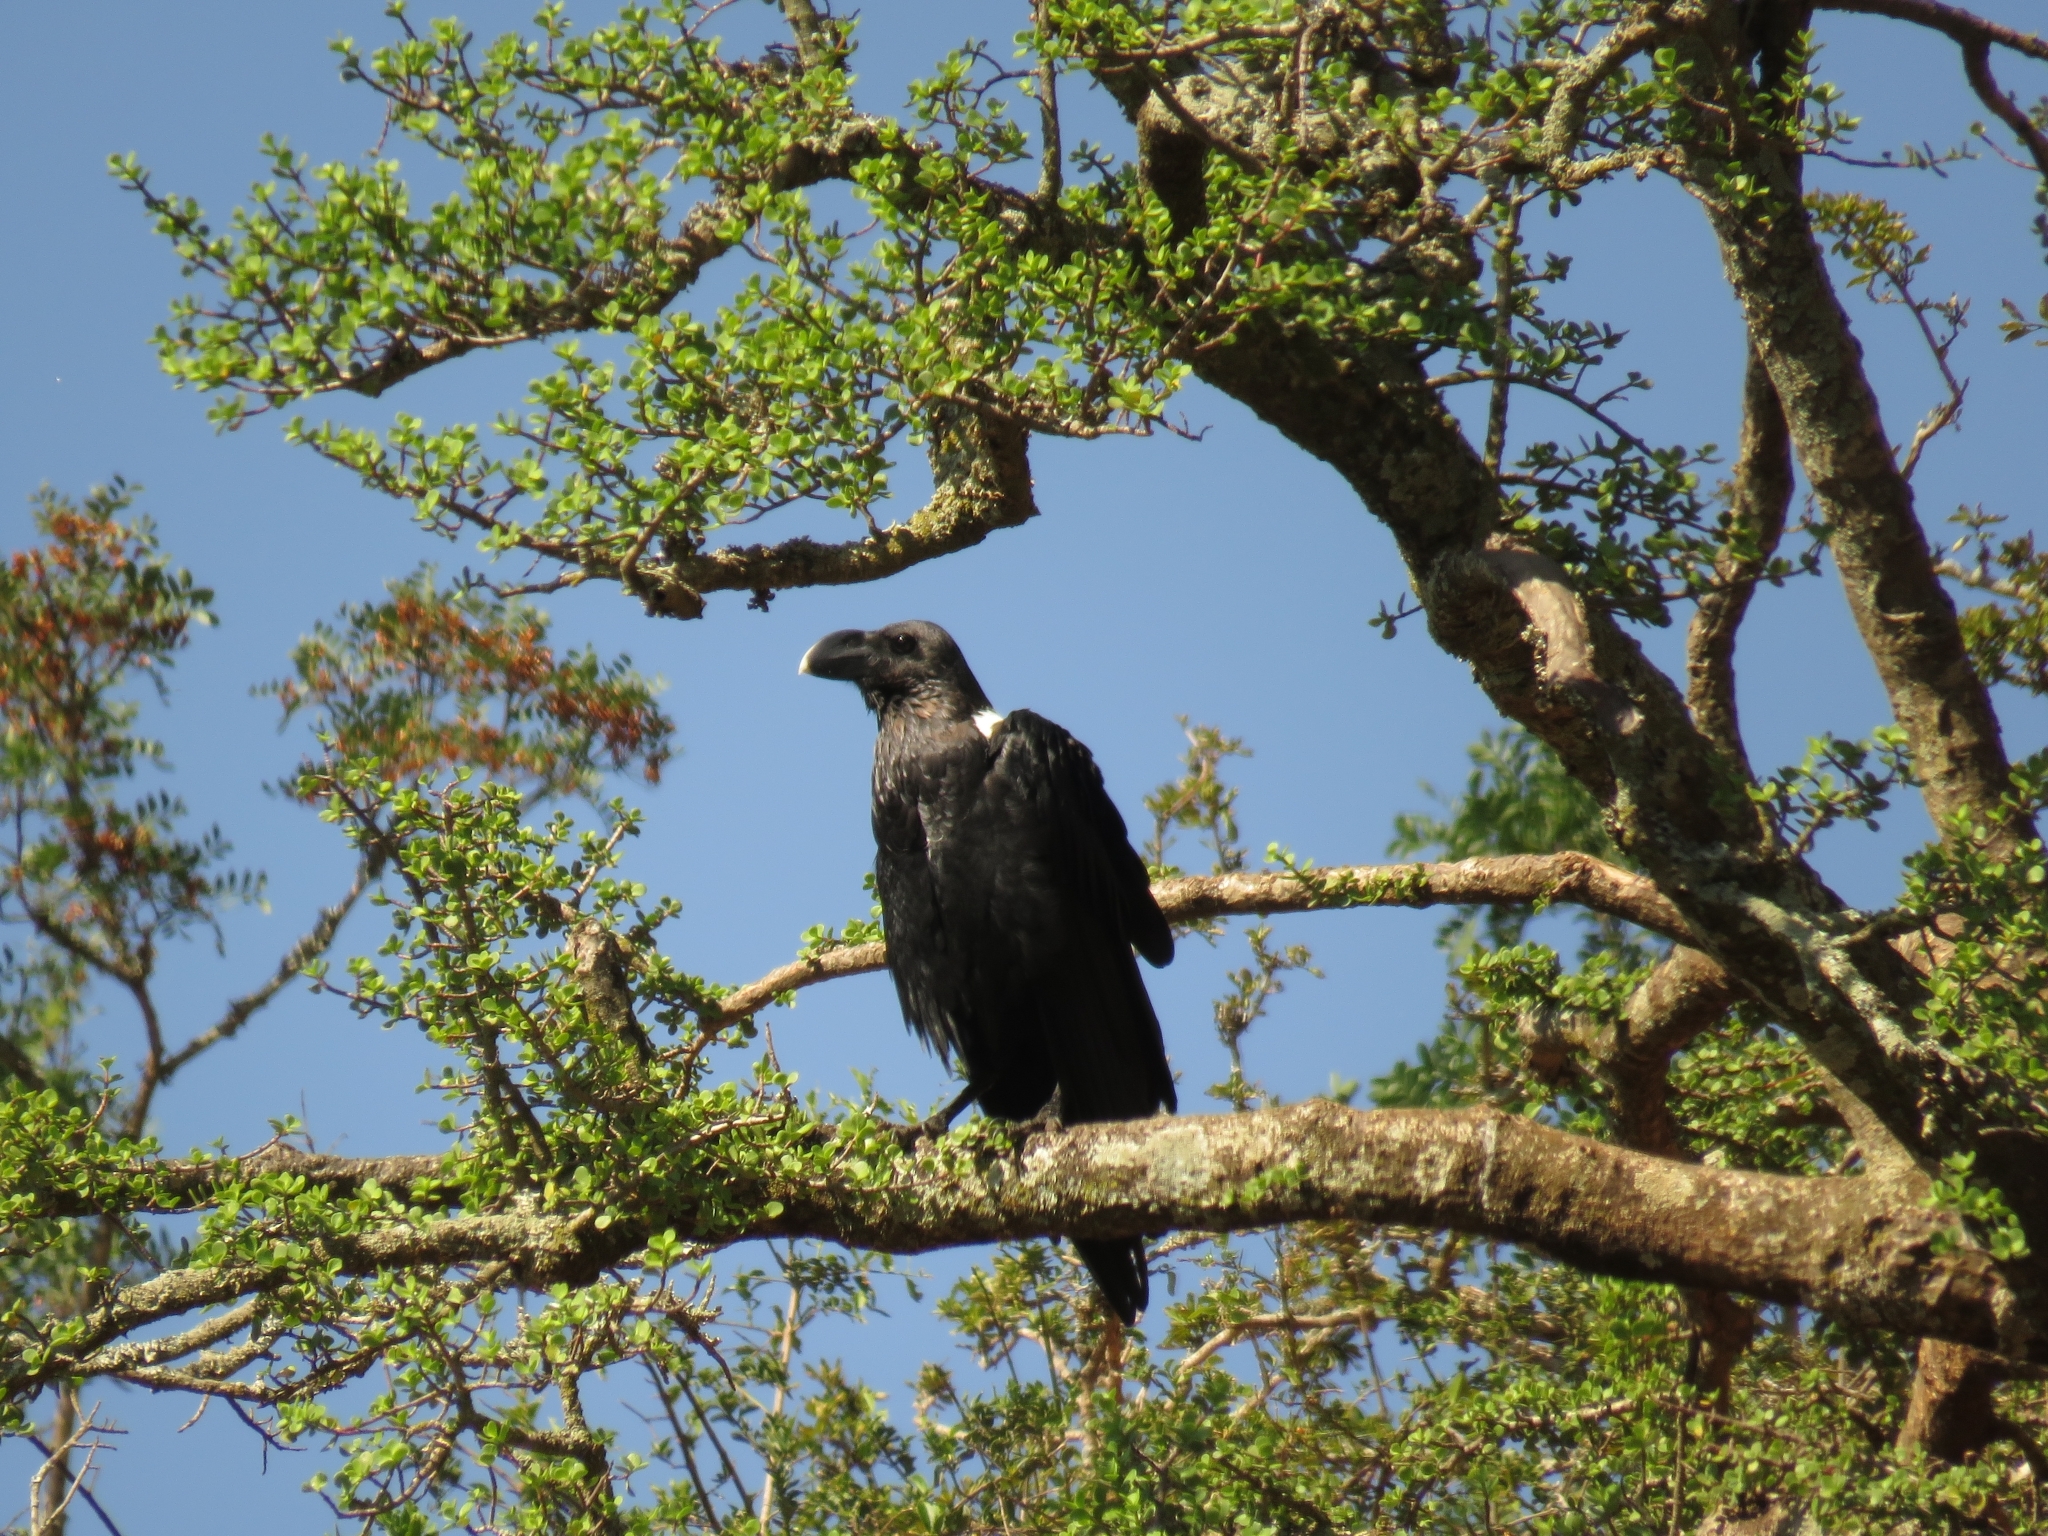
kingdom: Animalia
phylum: Chordata
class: Aves
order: Passeriformes
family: Corvidae
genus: Corvus
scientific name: Corvus albicollis
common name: White-necked raven
